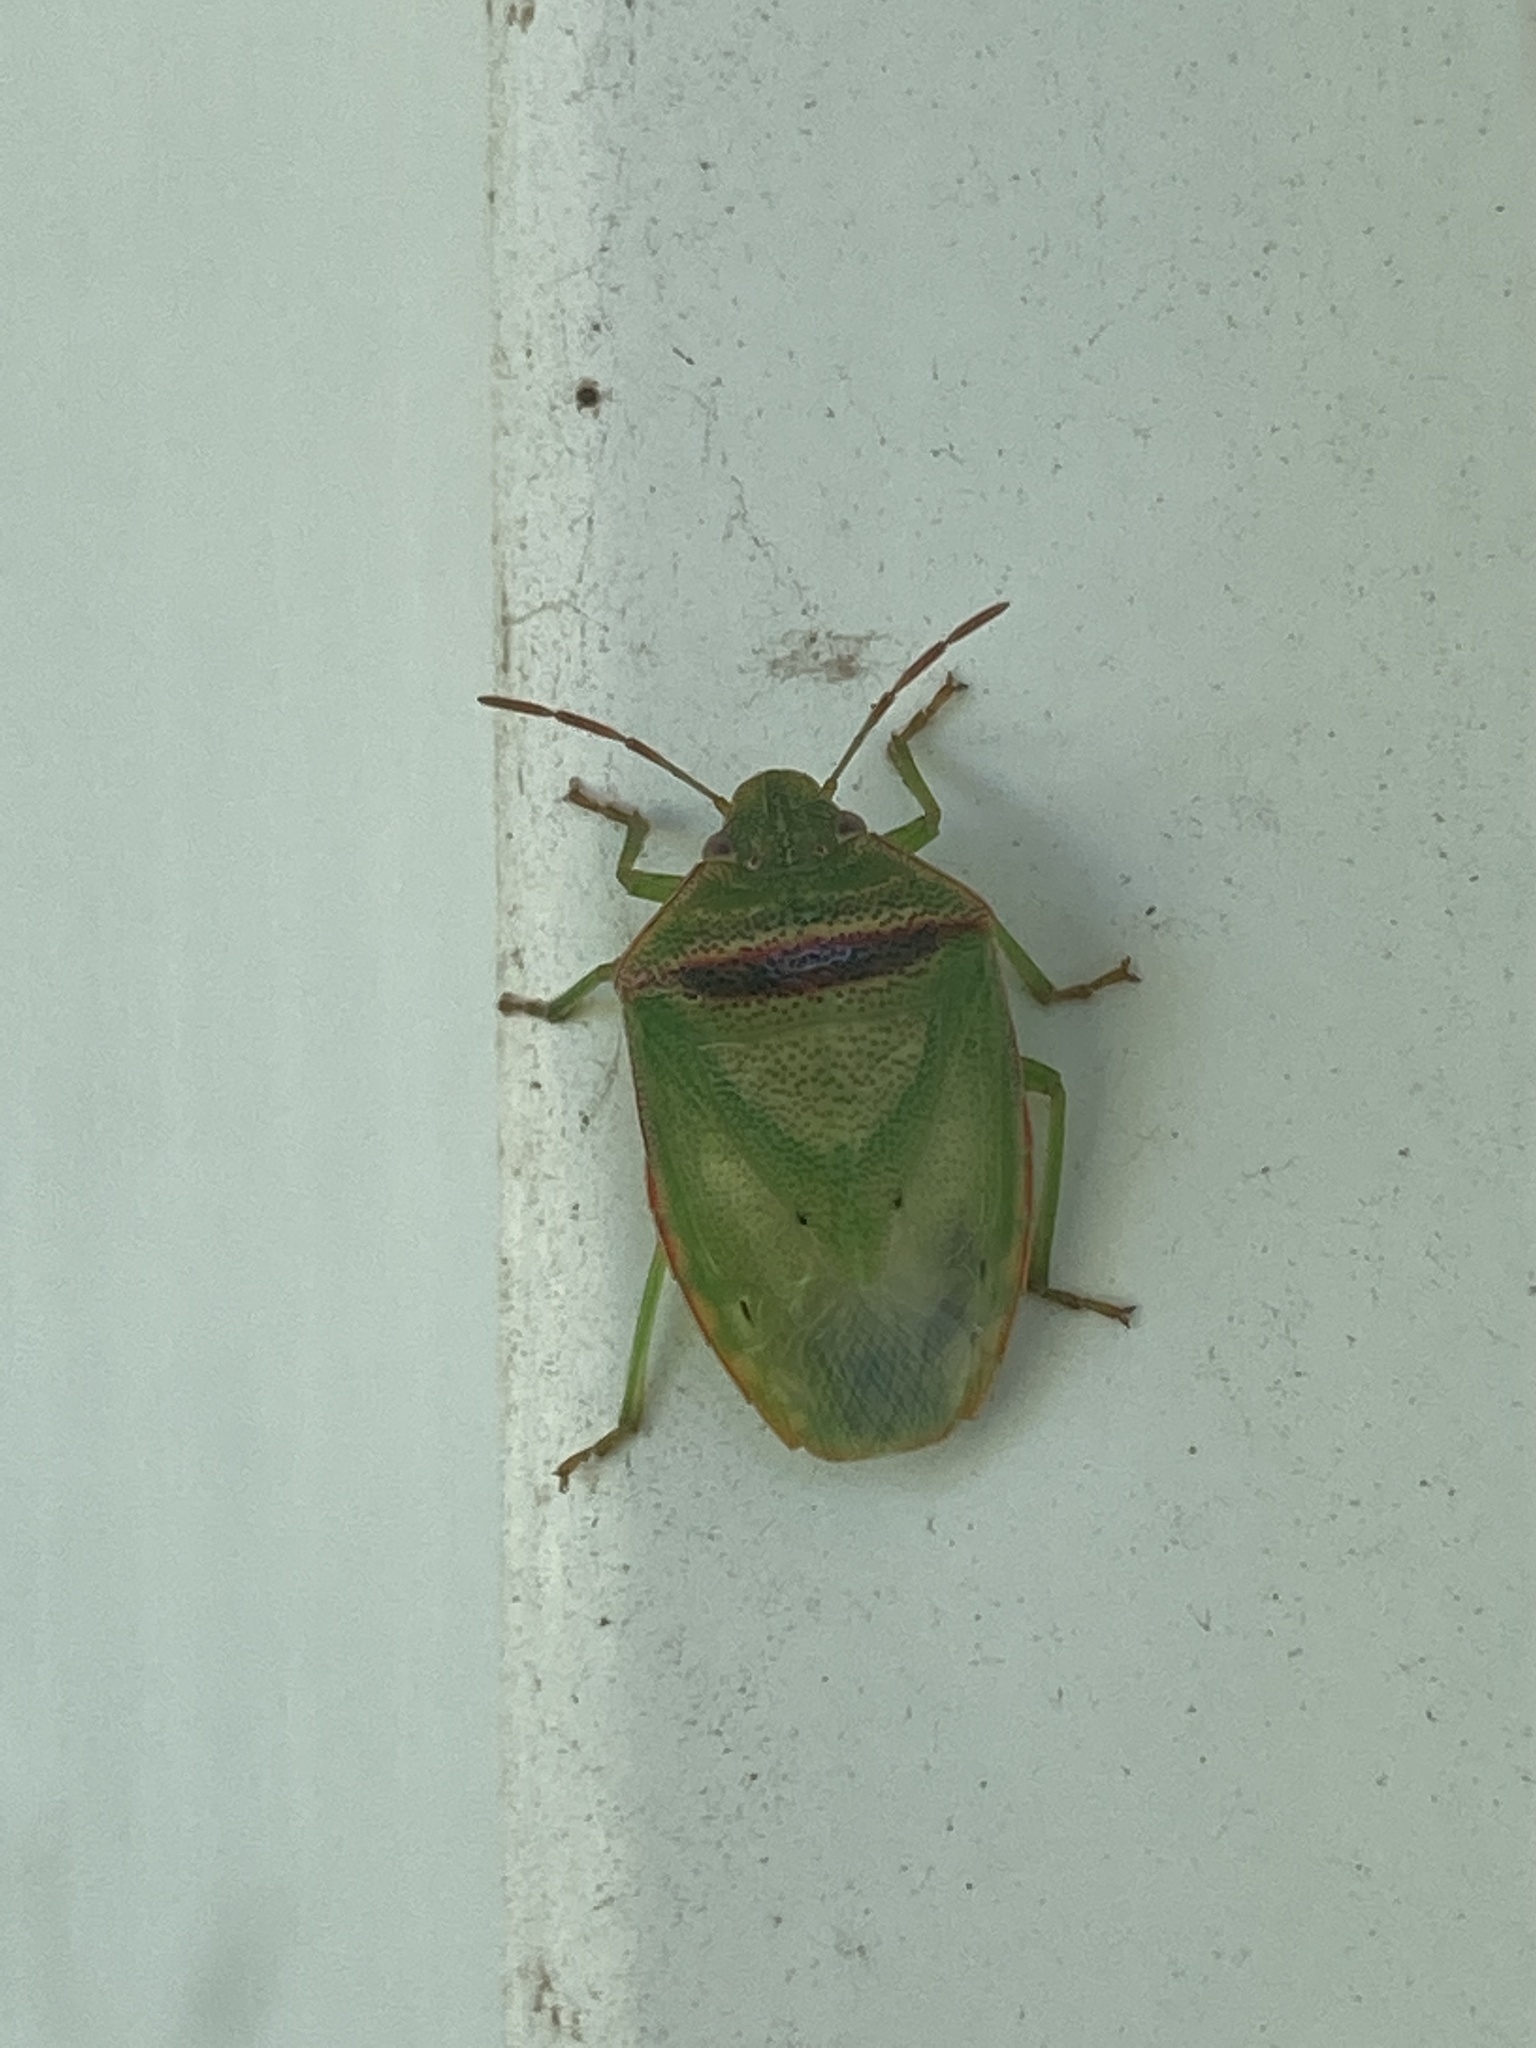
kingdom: Animalia
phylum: Arthropoda
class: Insecta
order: Hemiptera
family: Pentatomidae
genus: Piezodorus
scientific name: Piezodorus guildinii
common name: Redbanded stink bug
